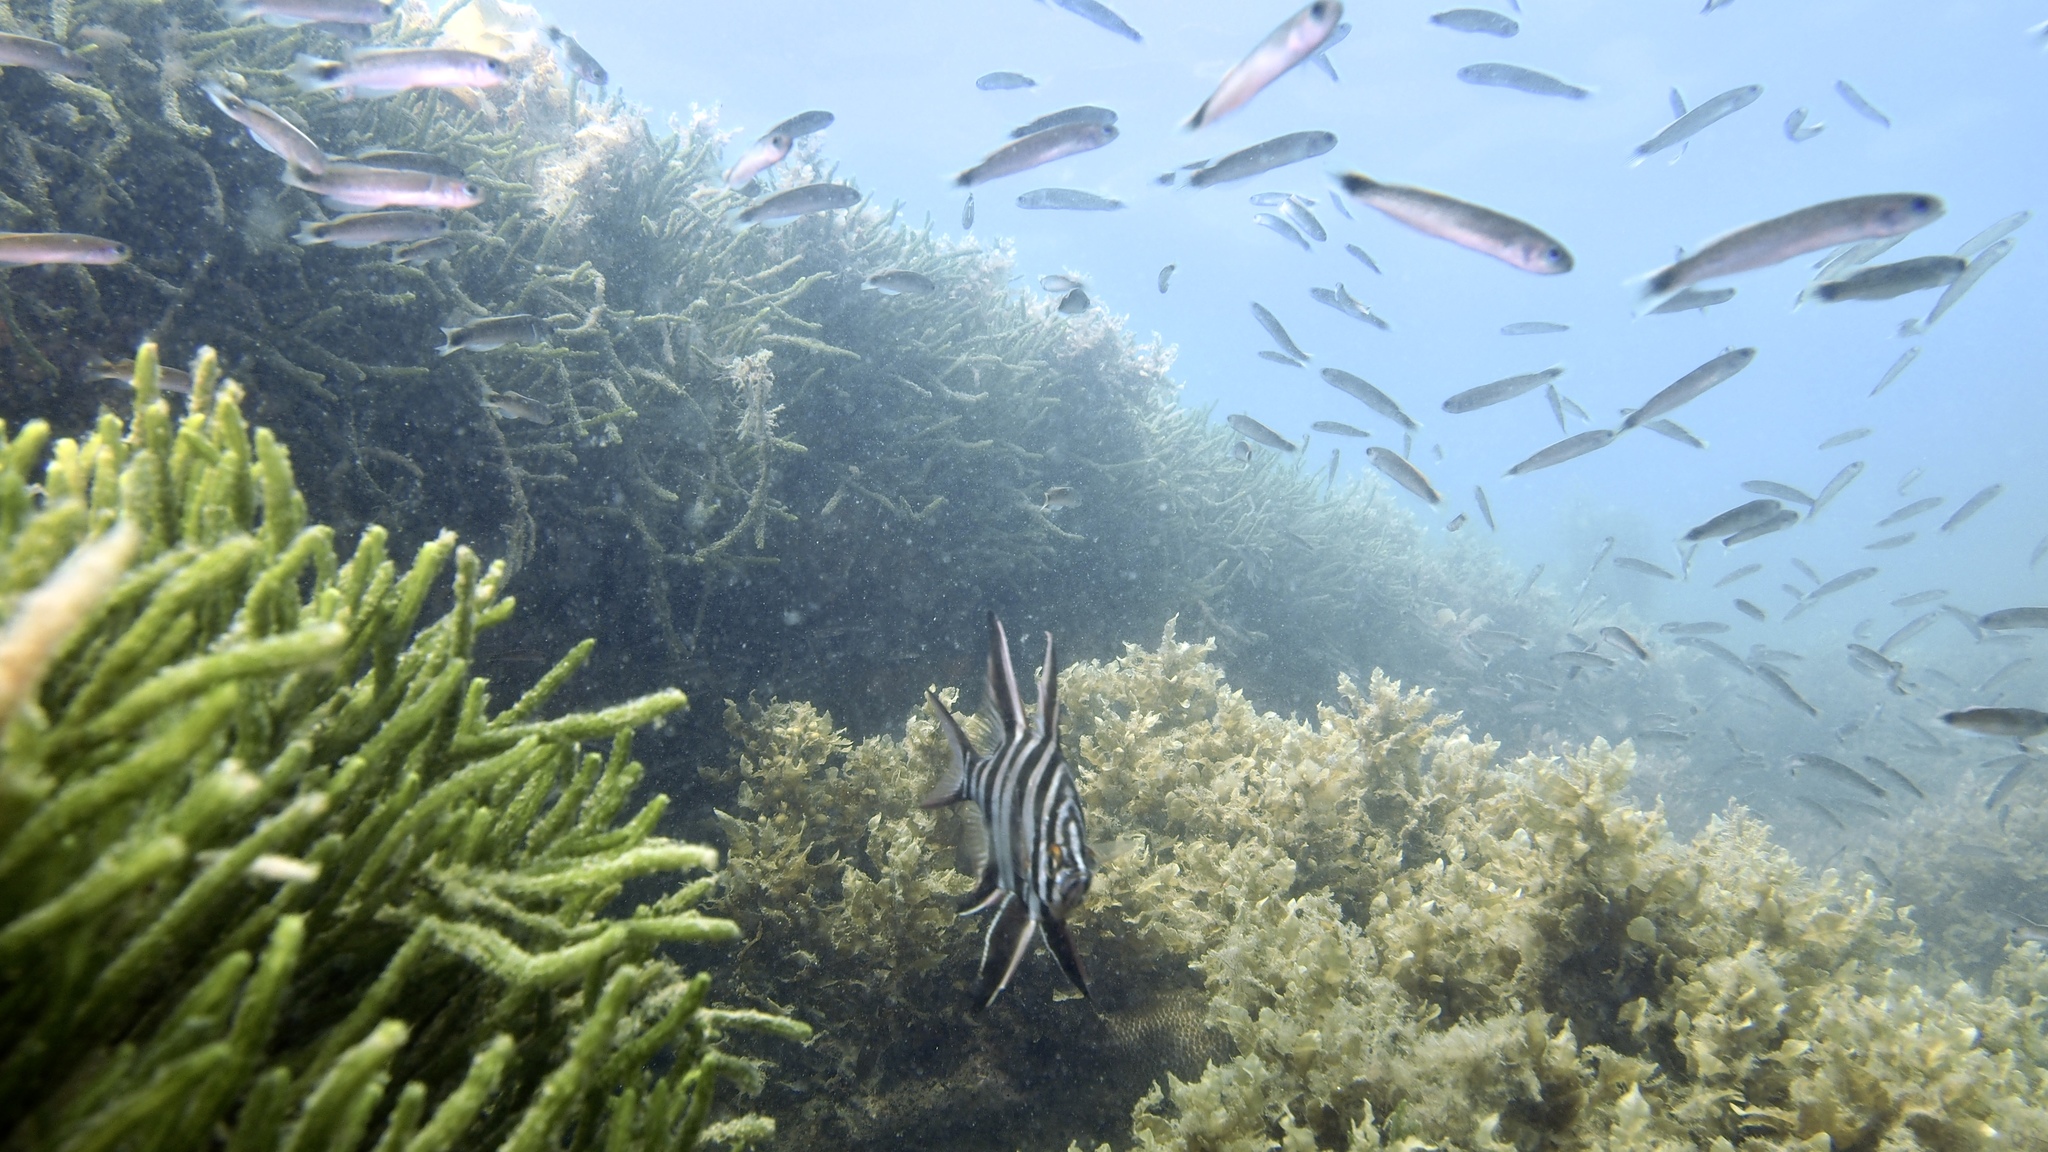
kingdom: Animalia
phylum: Chordata
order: Perciformes
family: Plesiopidae
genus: Trachinops
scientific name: Trachinops caudimaculatus
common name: Blotched-tailed trachinops
